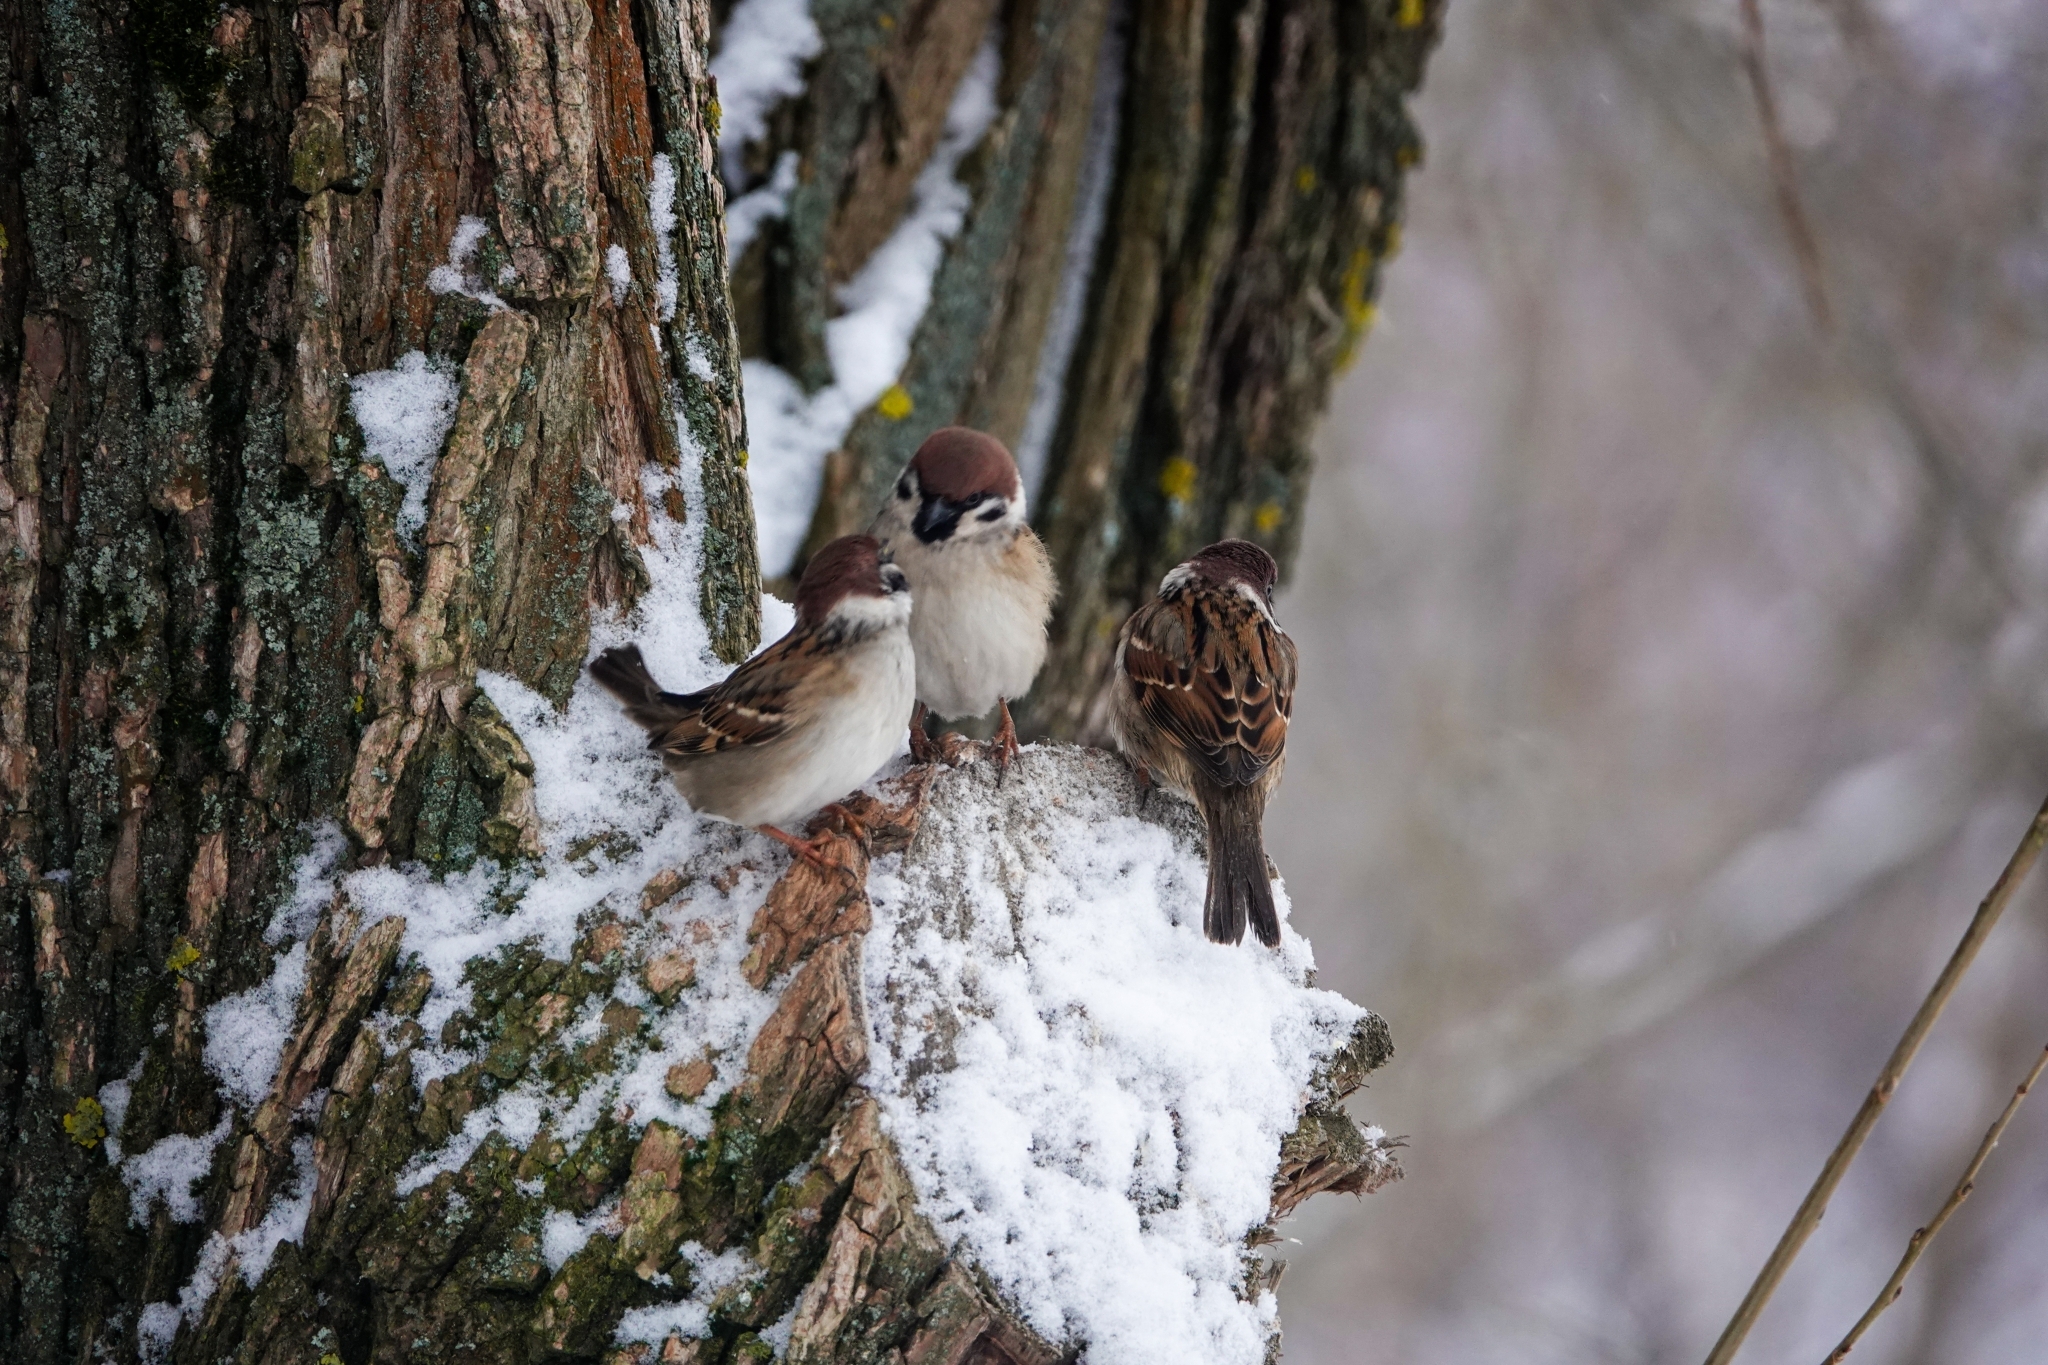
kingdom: Animalia
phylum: Chordata
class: Aves
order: Passeriformes
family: Passeridae
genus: Passer
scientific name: Passer montanus
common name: Eurasian tree sparrow
